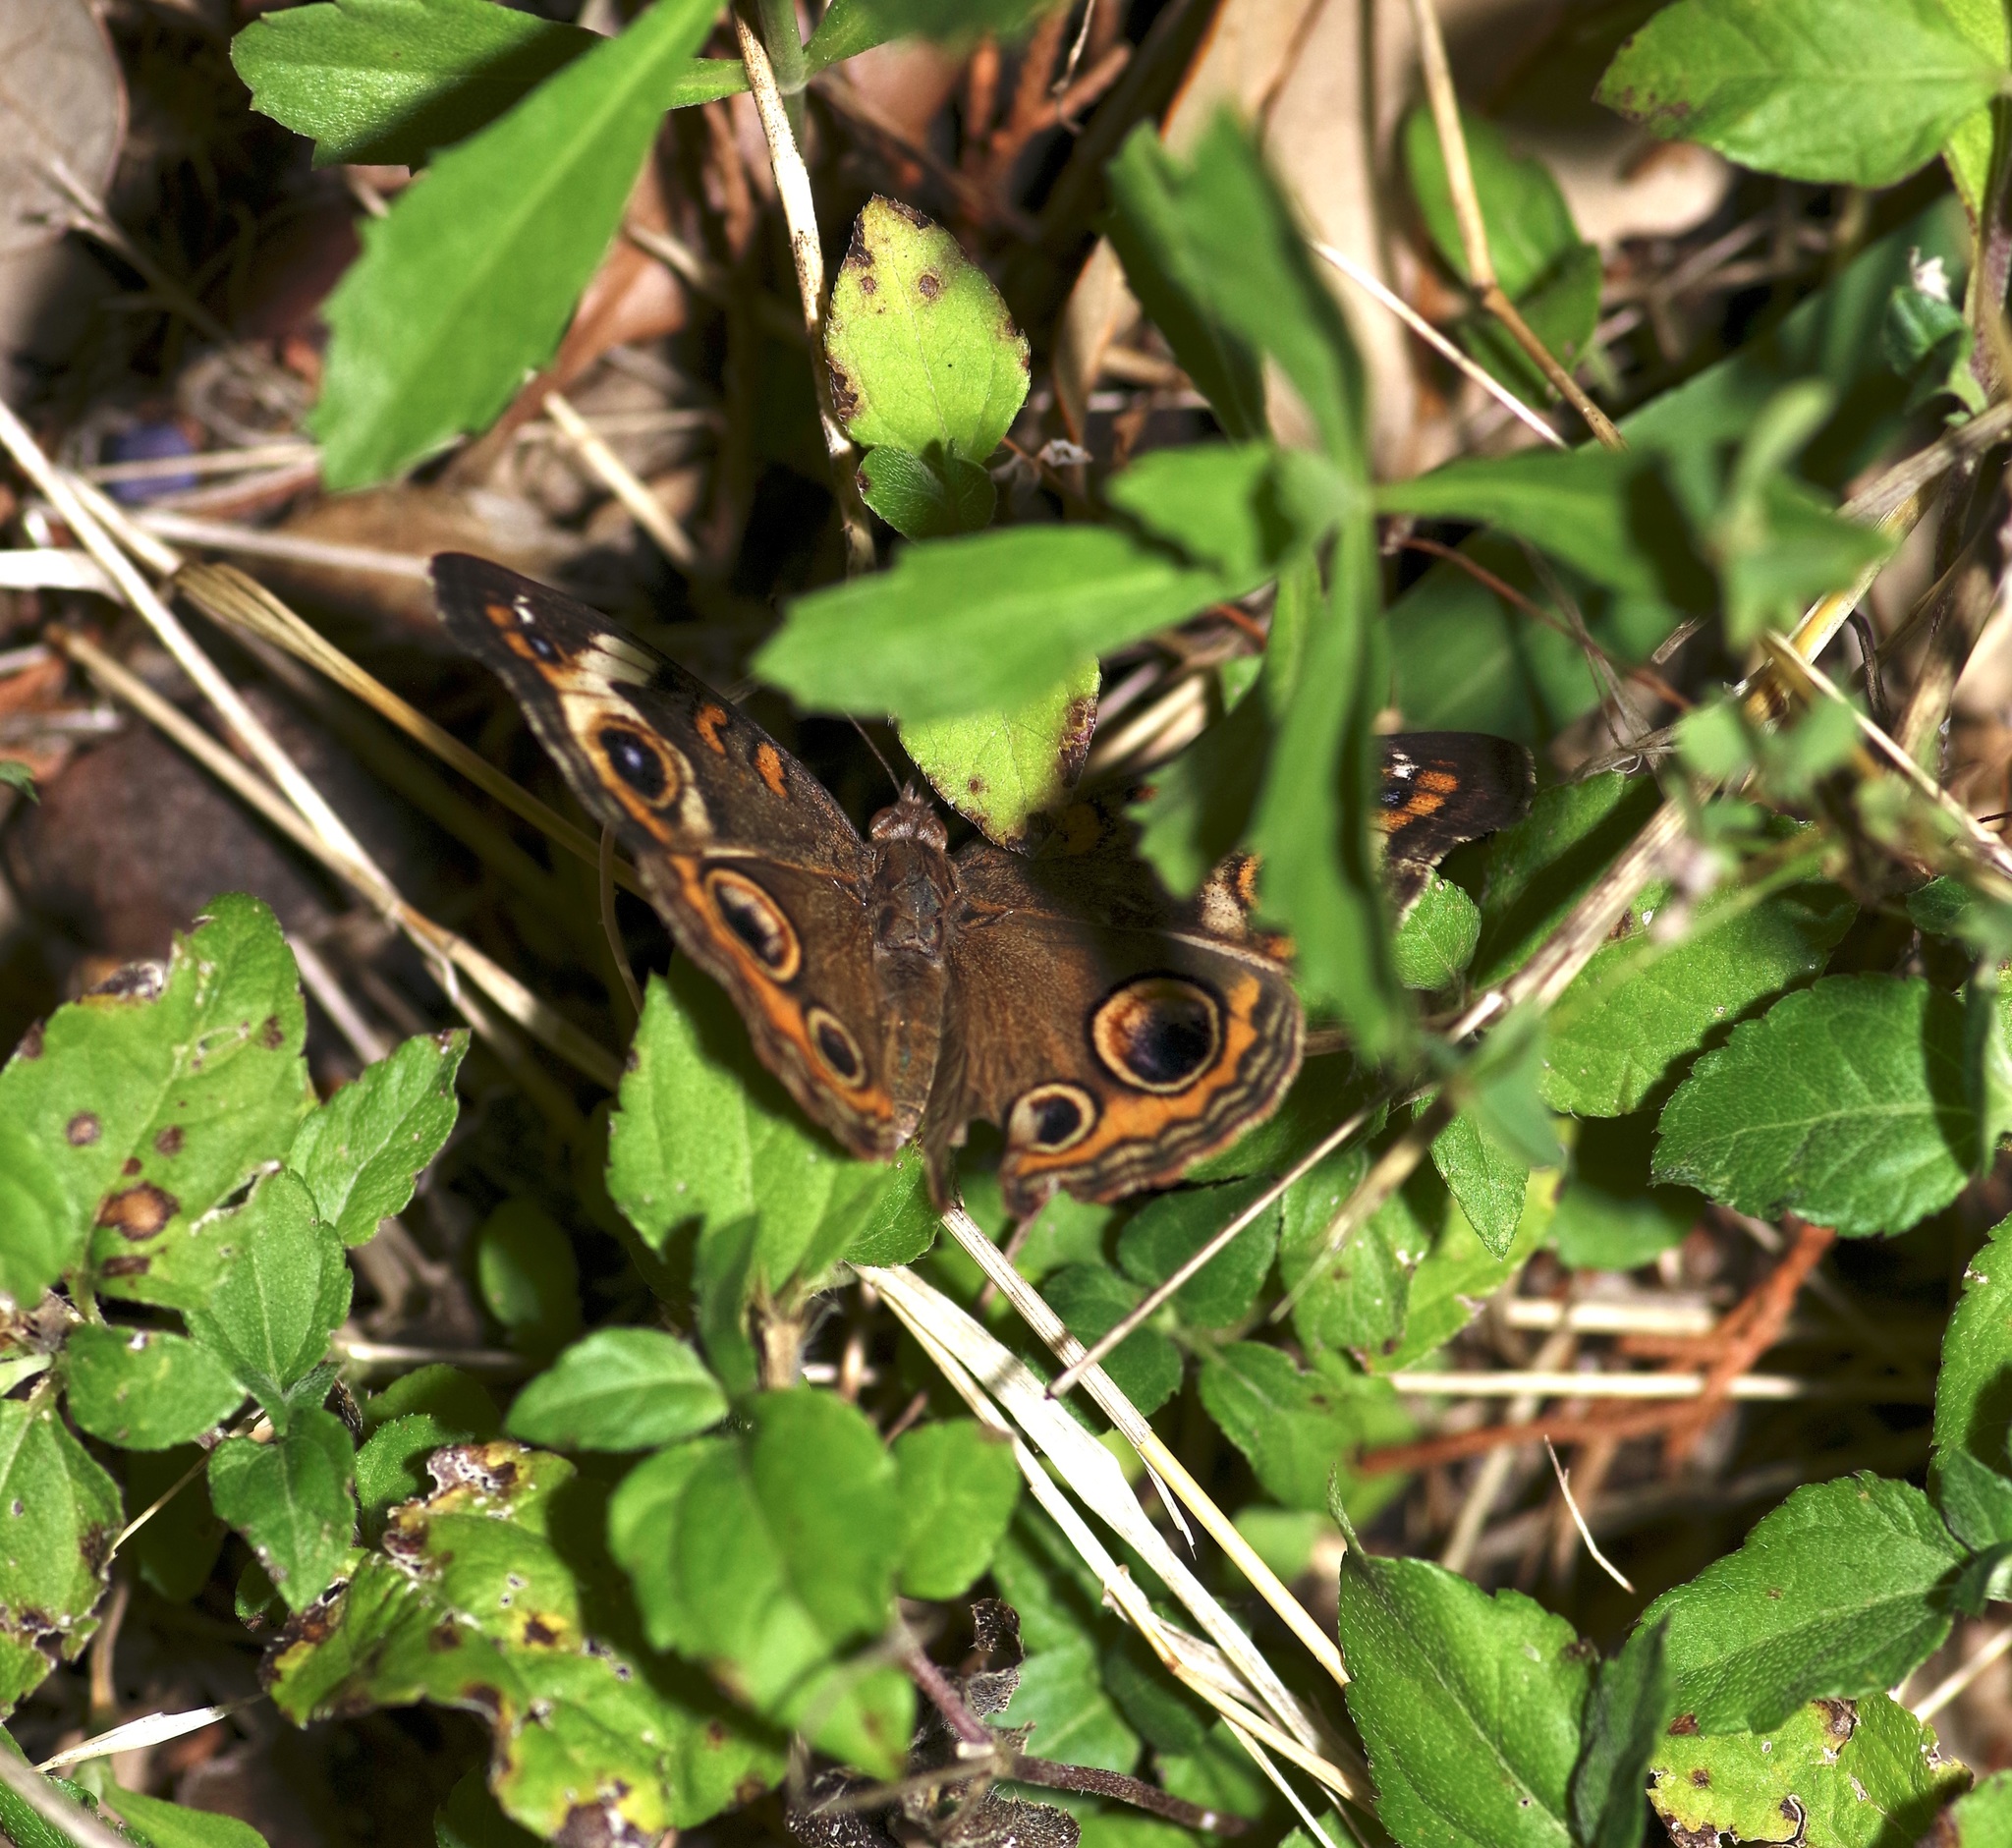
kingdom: Animalia
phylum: Arthropoda
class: Insecta
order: Lepidoptera
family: Nymphalidae
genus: Junonia
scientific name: Junonia coenia
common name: Common buckeye
